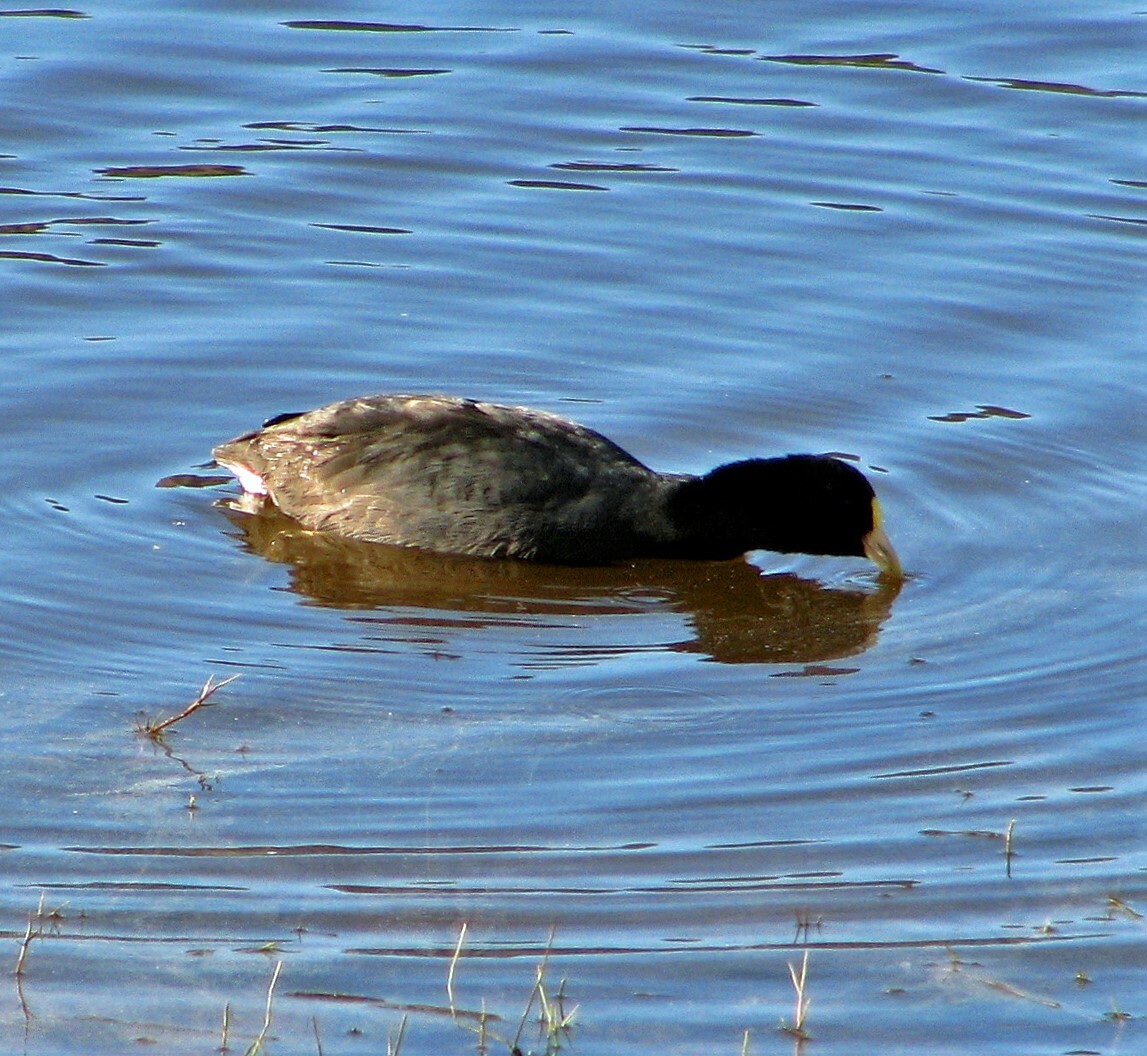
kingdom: Animalia
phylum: Chordata
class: Aves
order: Gruiformes
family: Rallidae
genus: Fulica
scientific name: Fulica leucoptera
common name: White-winged coot
